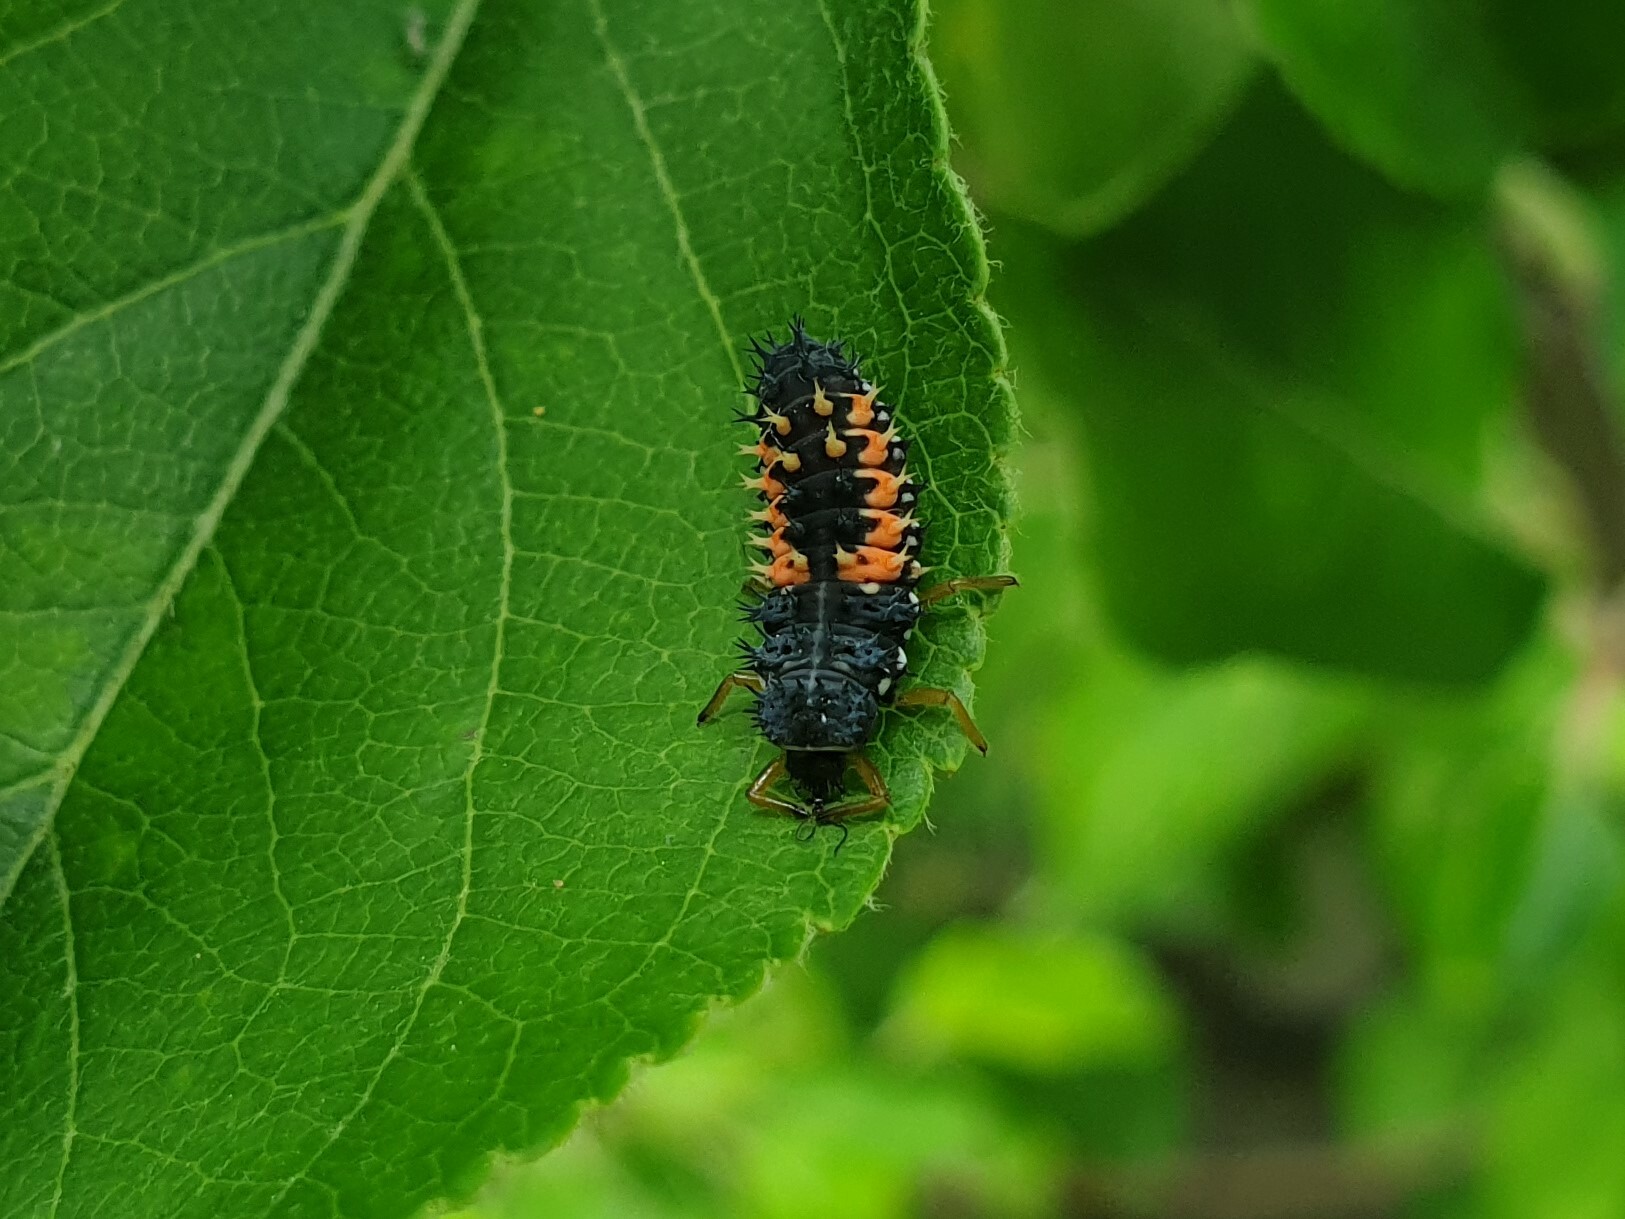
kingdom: Animalia
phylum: Arthropoda
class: Insecta
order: Coleoptera
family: Coccinellidae
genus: Harmonia
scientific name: Harmonia axyridis
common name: Harlequin ladybird
